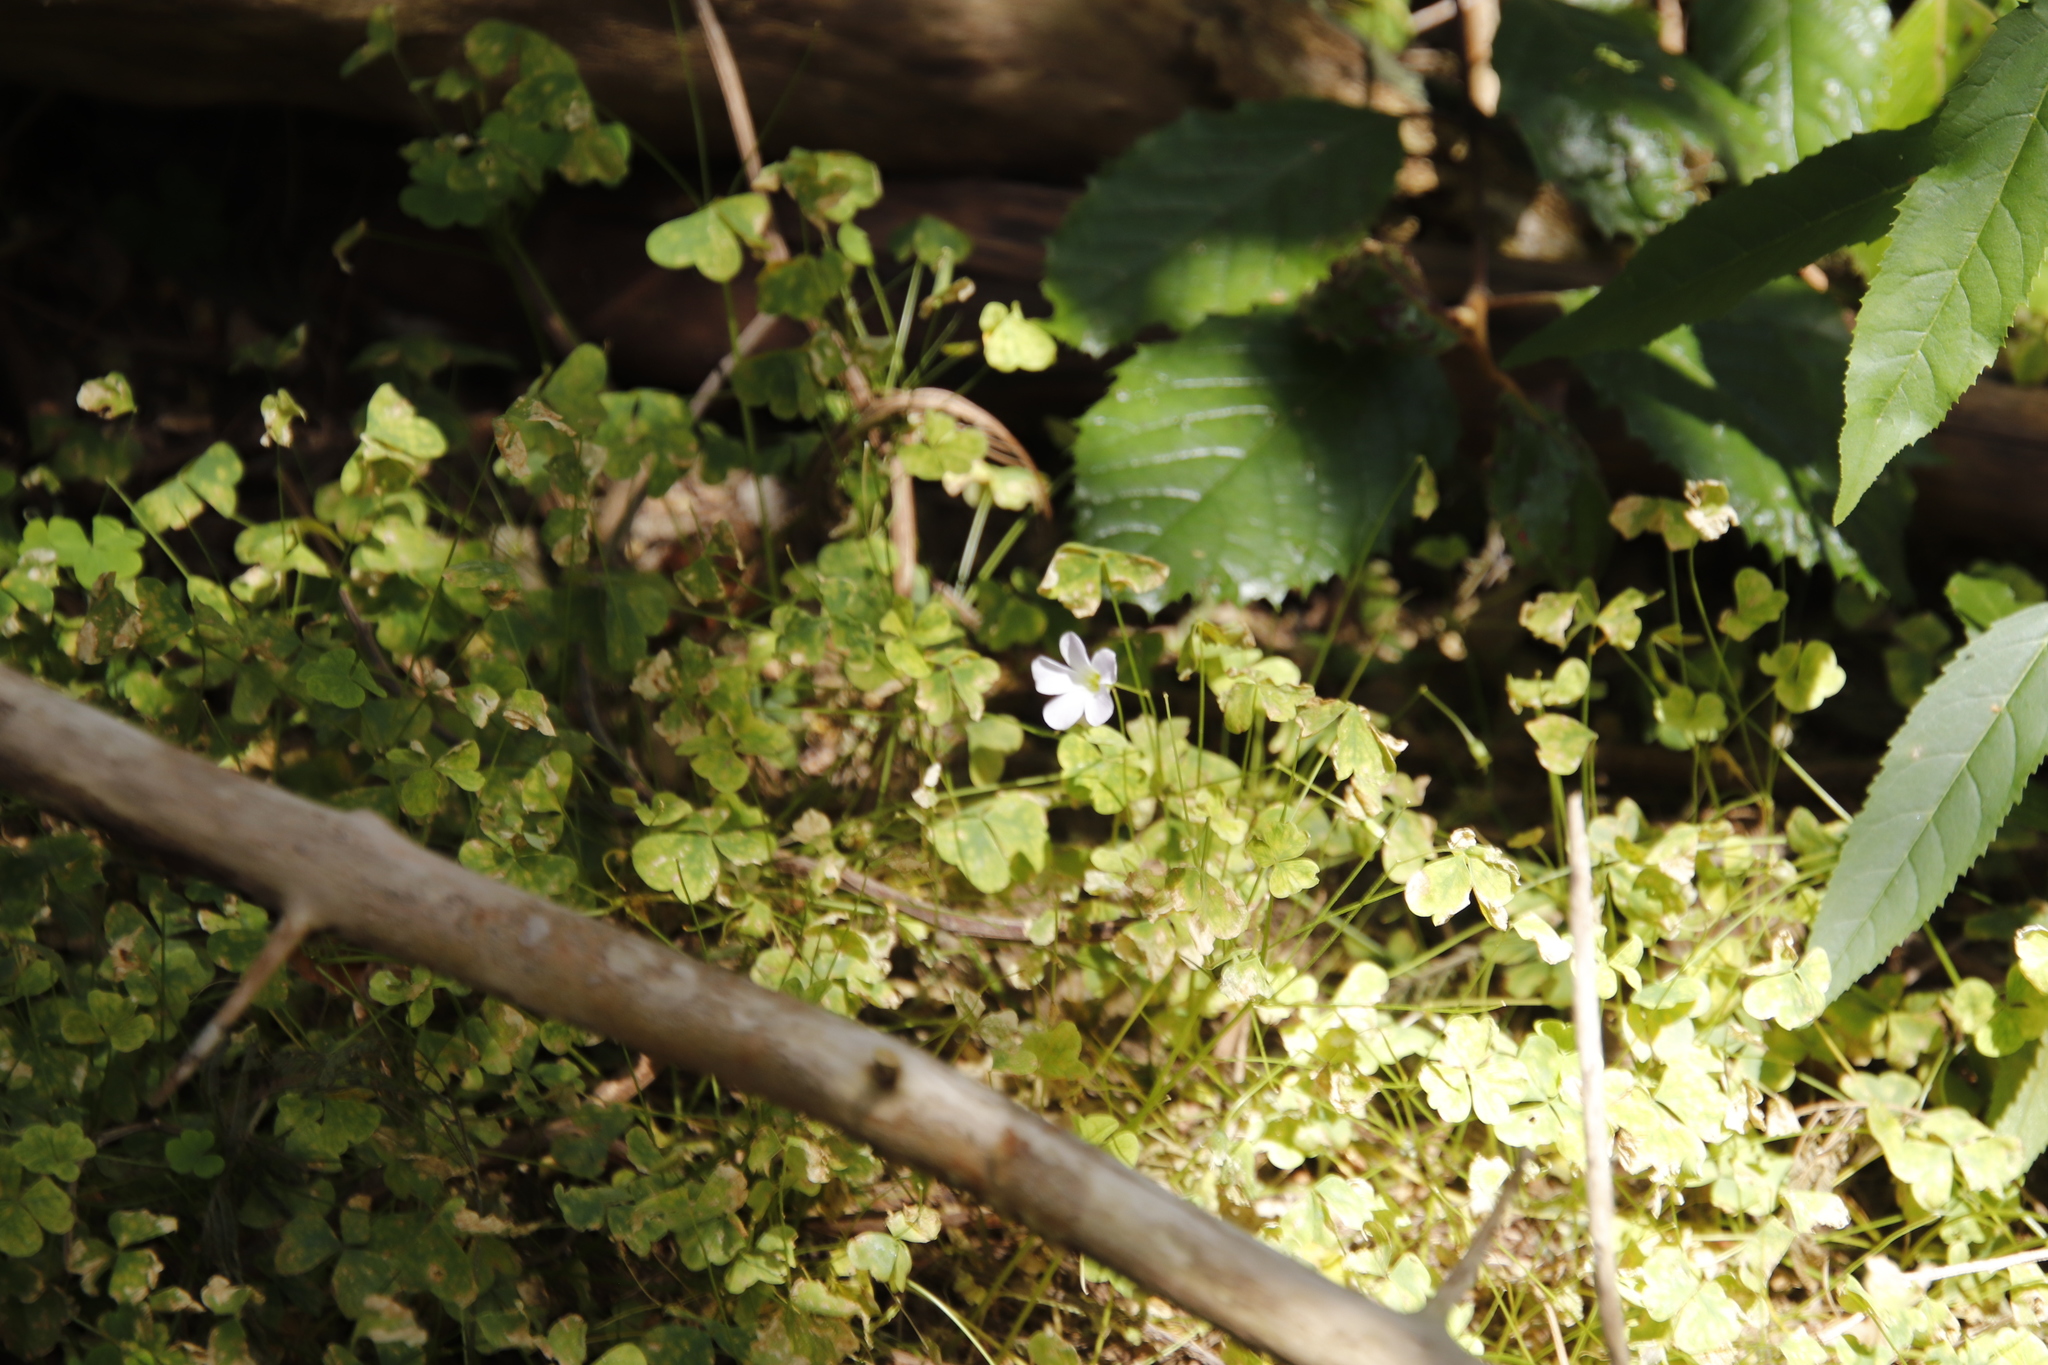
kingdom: Plantae
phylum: Tracheophyta
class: Magnoliopsida
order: Oxalidales
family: Oxalidaceae
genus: Oxalis
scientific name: Oxalis incarnata
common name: Pale pink-sorrel
